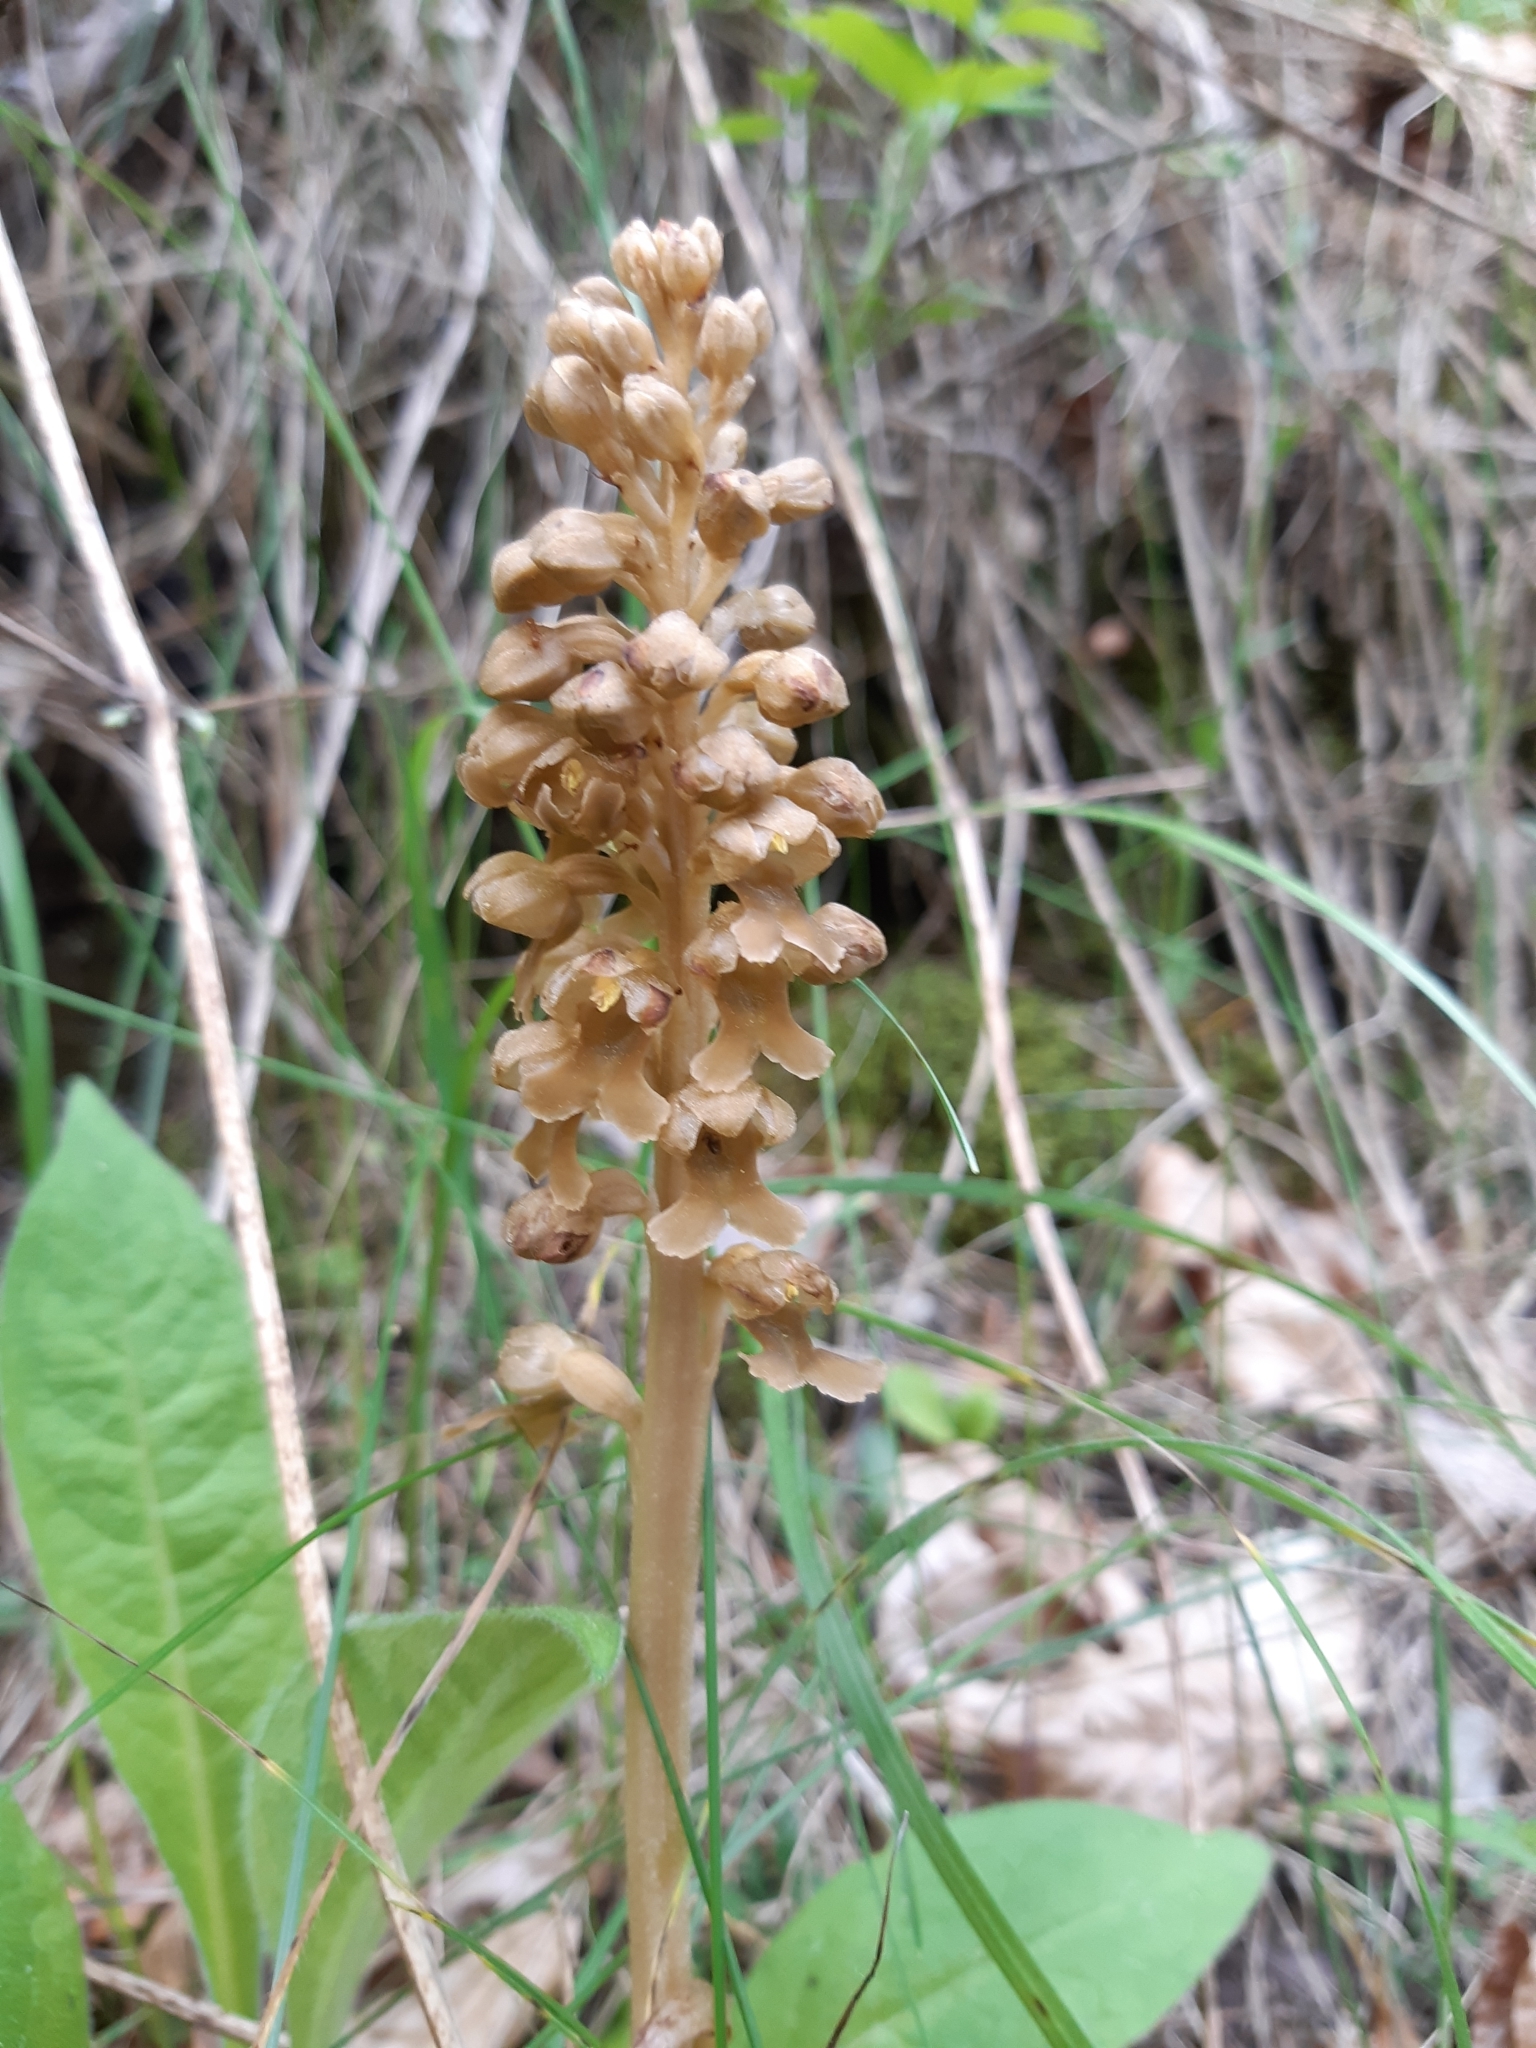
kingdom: Plantae
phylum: Tracheophyta
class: Liliopsida
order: Asparagales
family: Orchidaceae
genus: Neottia
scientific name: Neottia nidus-avis
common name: Bird's-nest orchid
